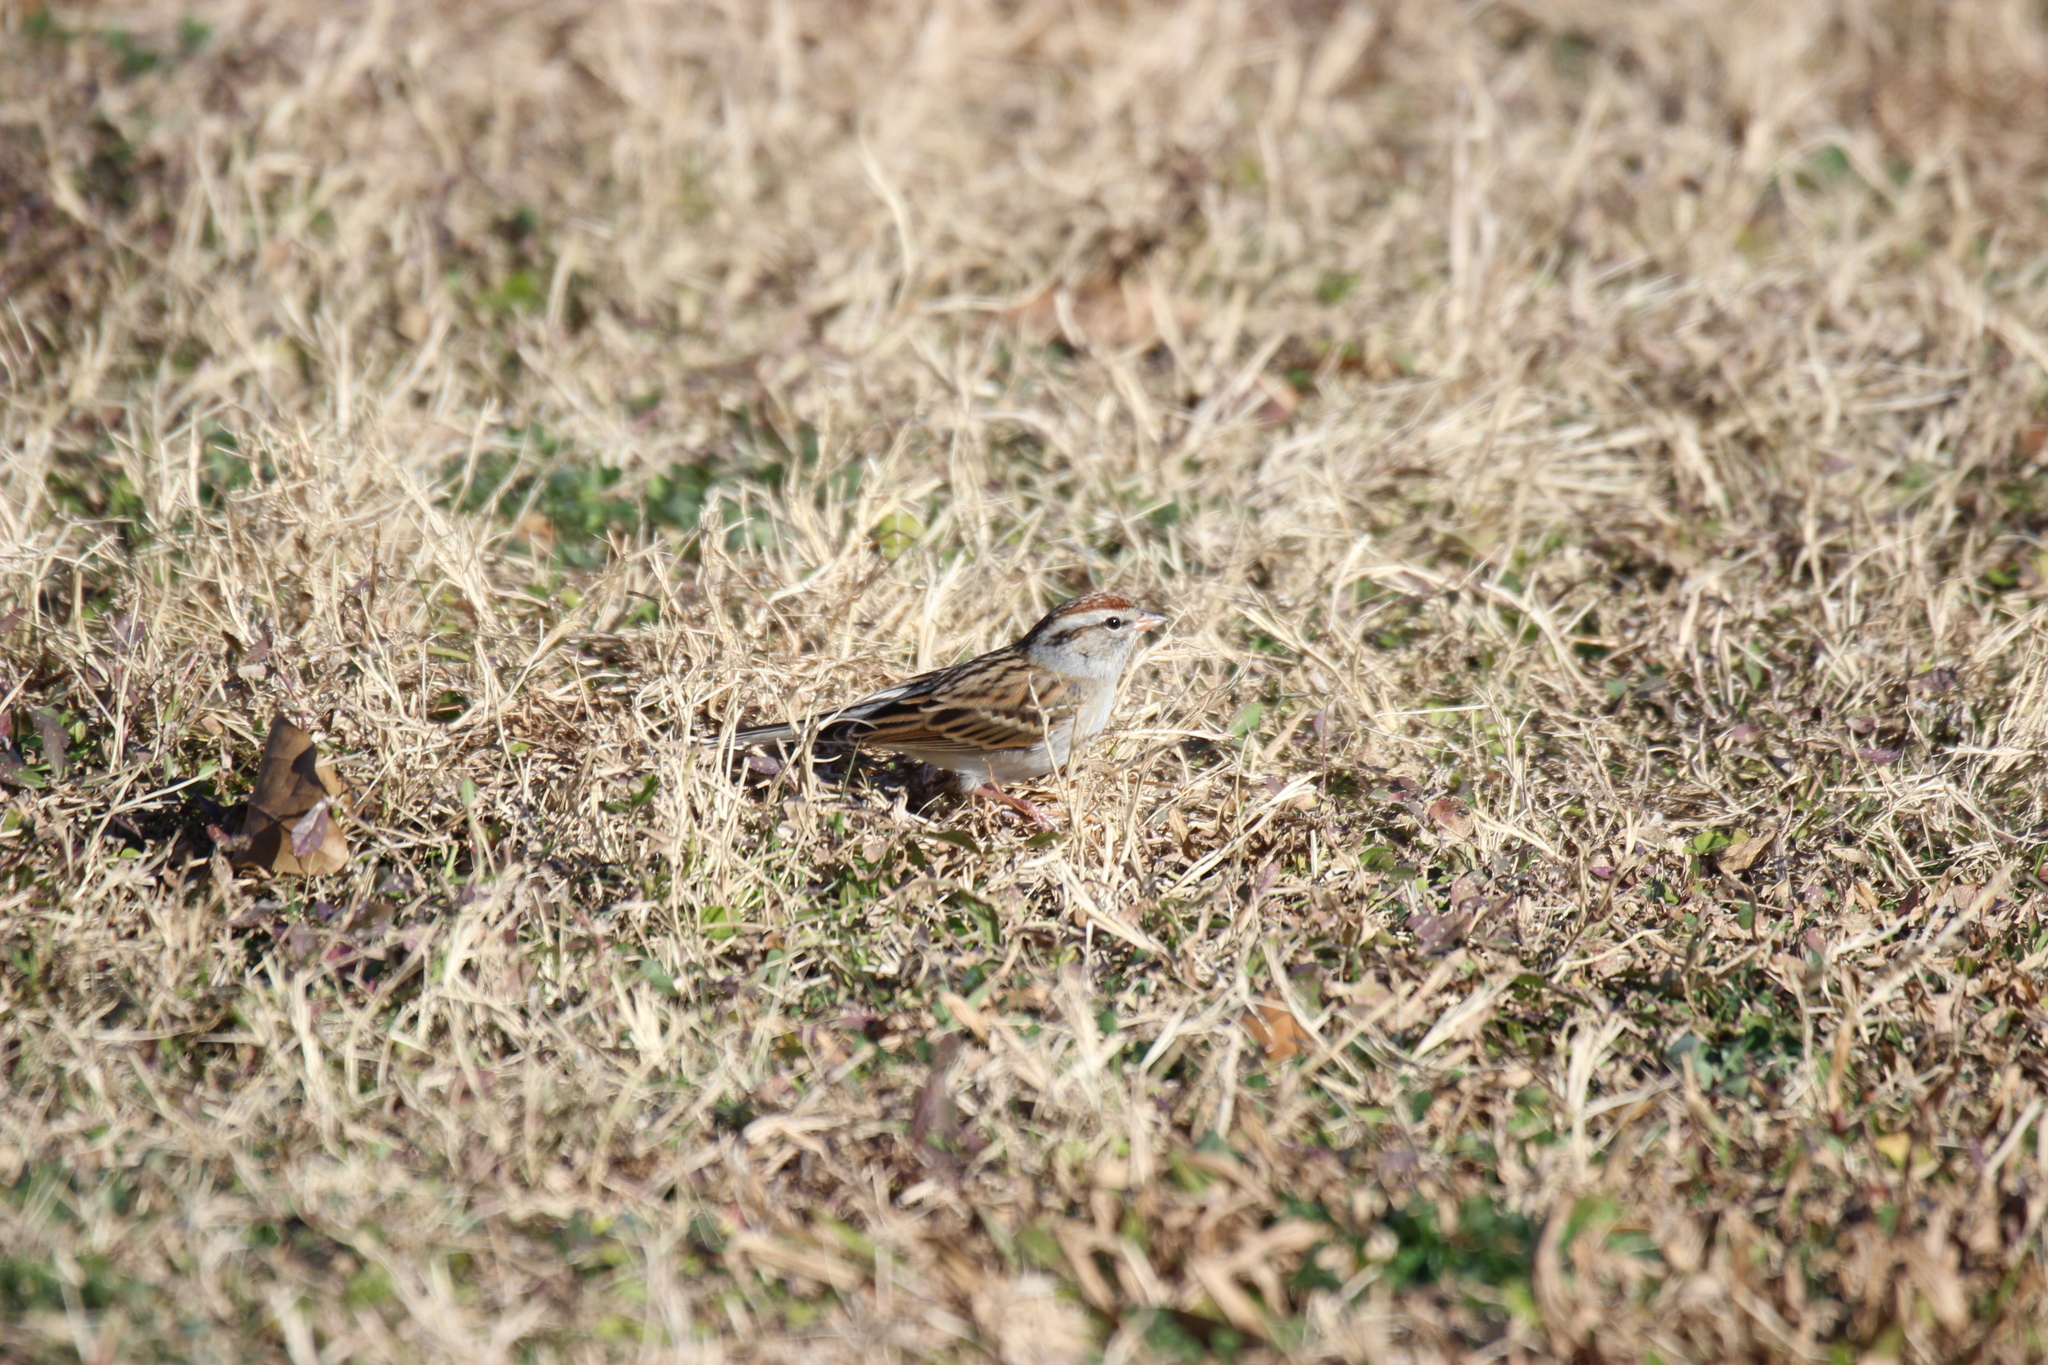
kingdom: Animalia
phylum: Chordata
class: Aves
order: Passeriformes
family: Passerellidae
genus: Spizella
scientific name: Spizella passerina
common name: Chipping sparrow
